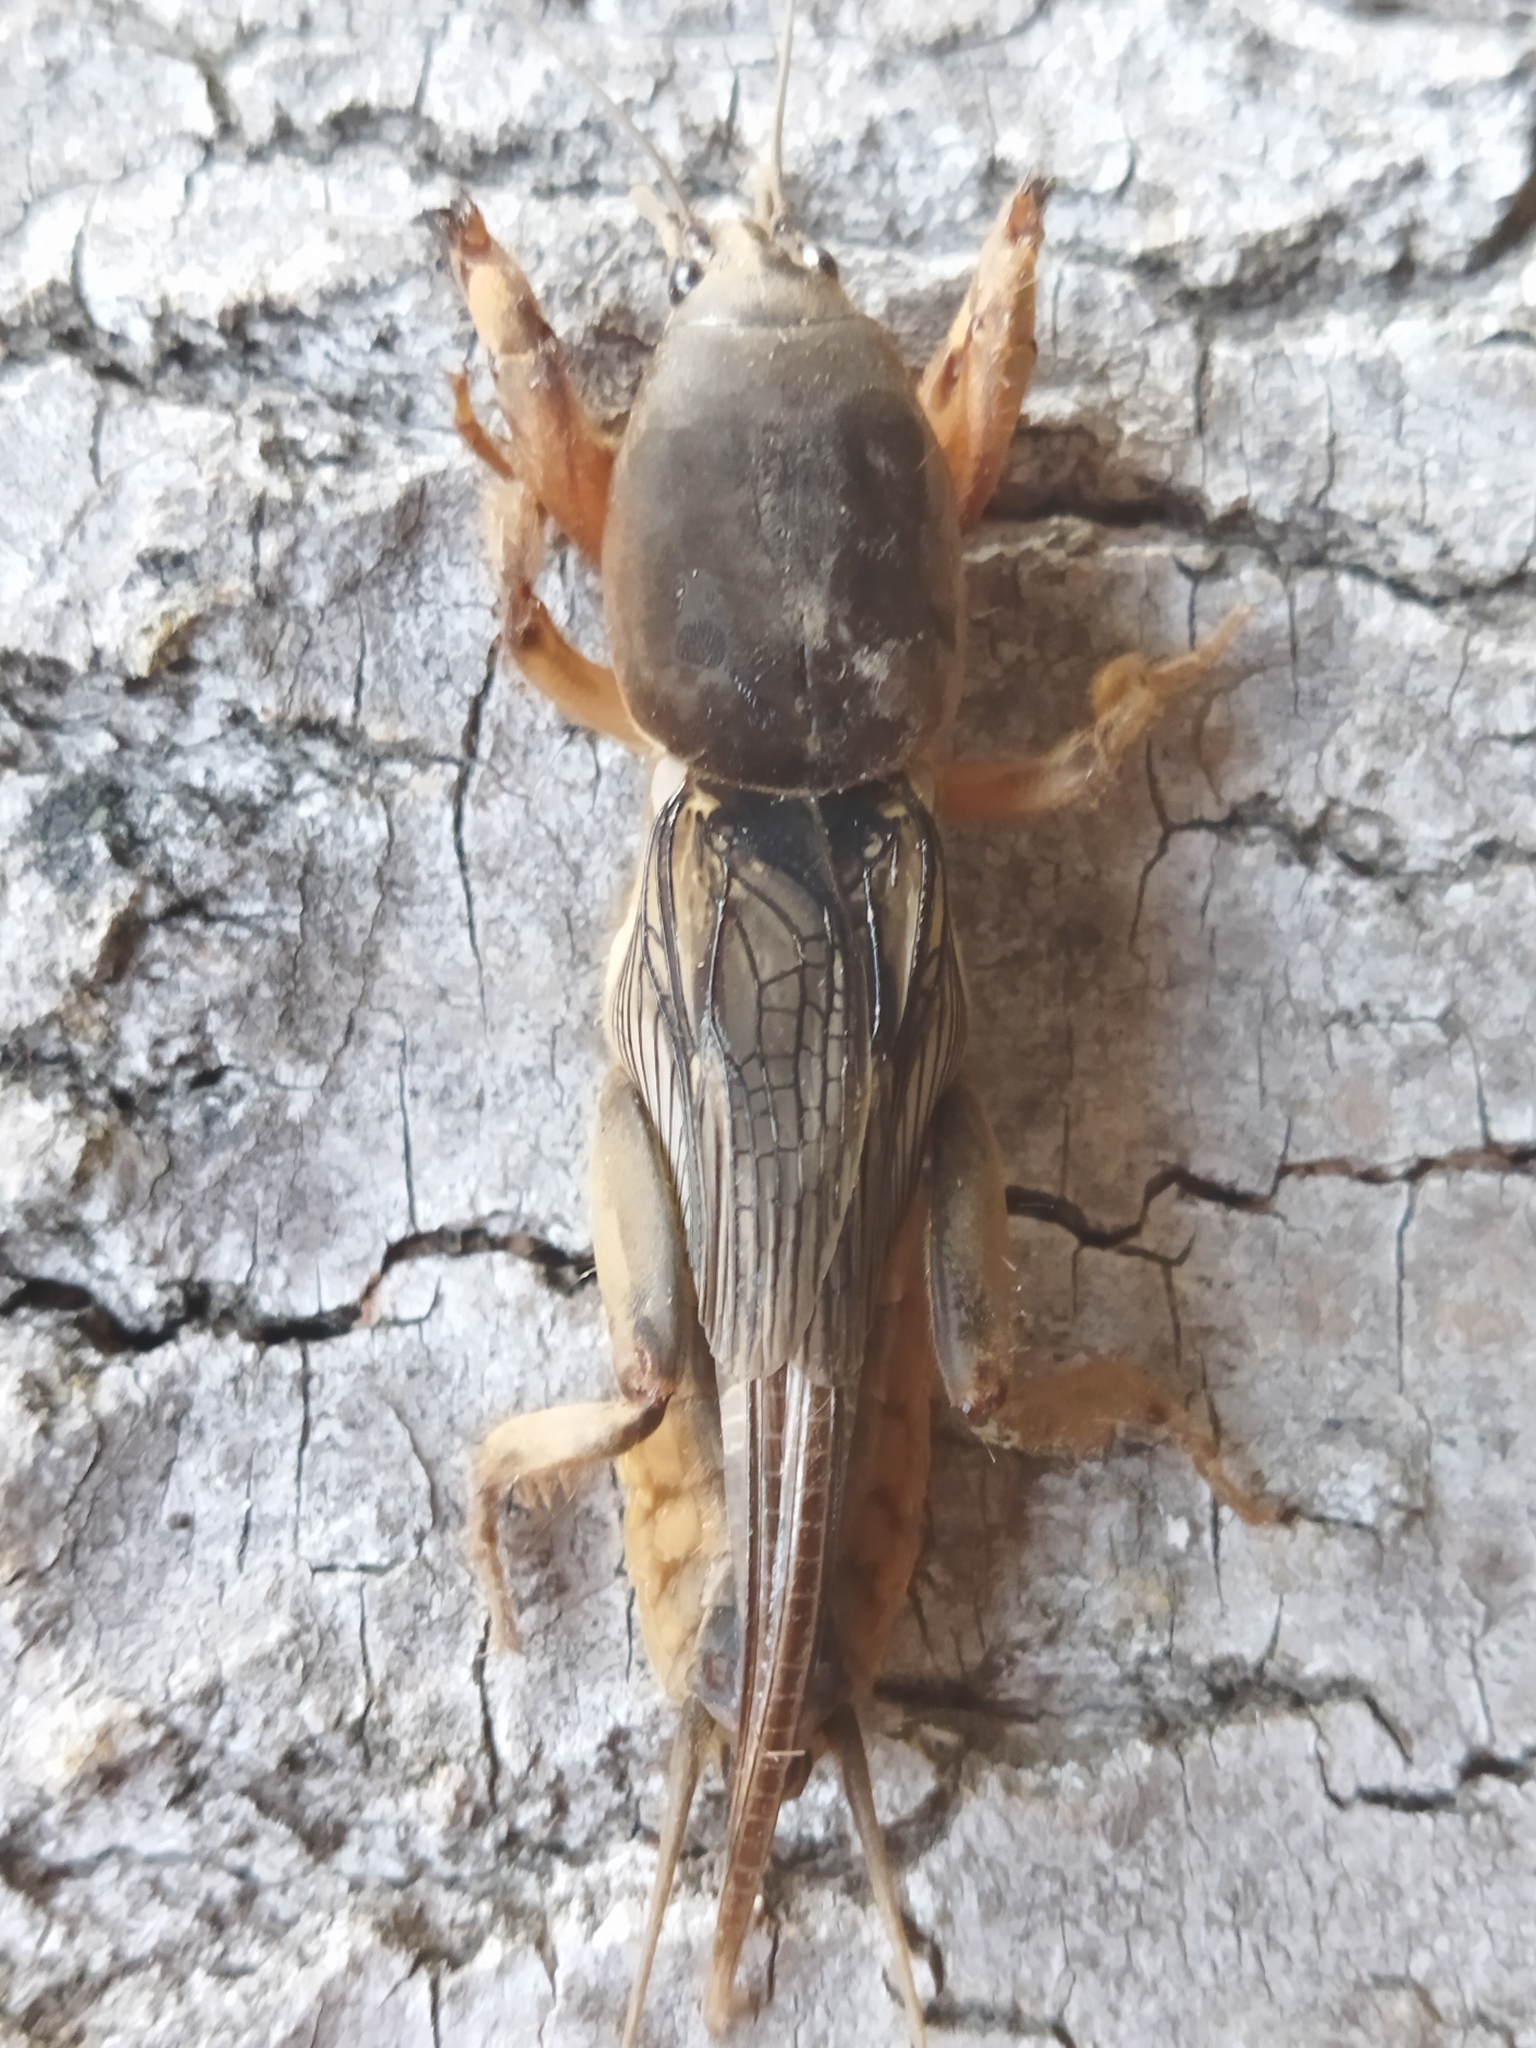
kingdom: Animalia
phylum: Arthropoda
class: Insecta
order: Orthoptera
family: Gryllotalpidae
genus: Gryllotalpa
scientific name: Gryllotalpa gryllotalpa
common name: European mole cricket
